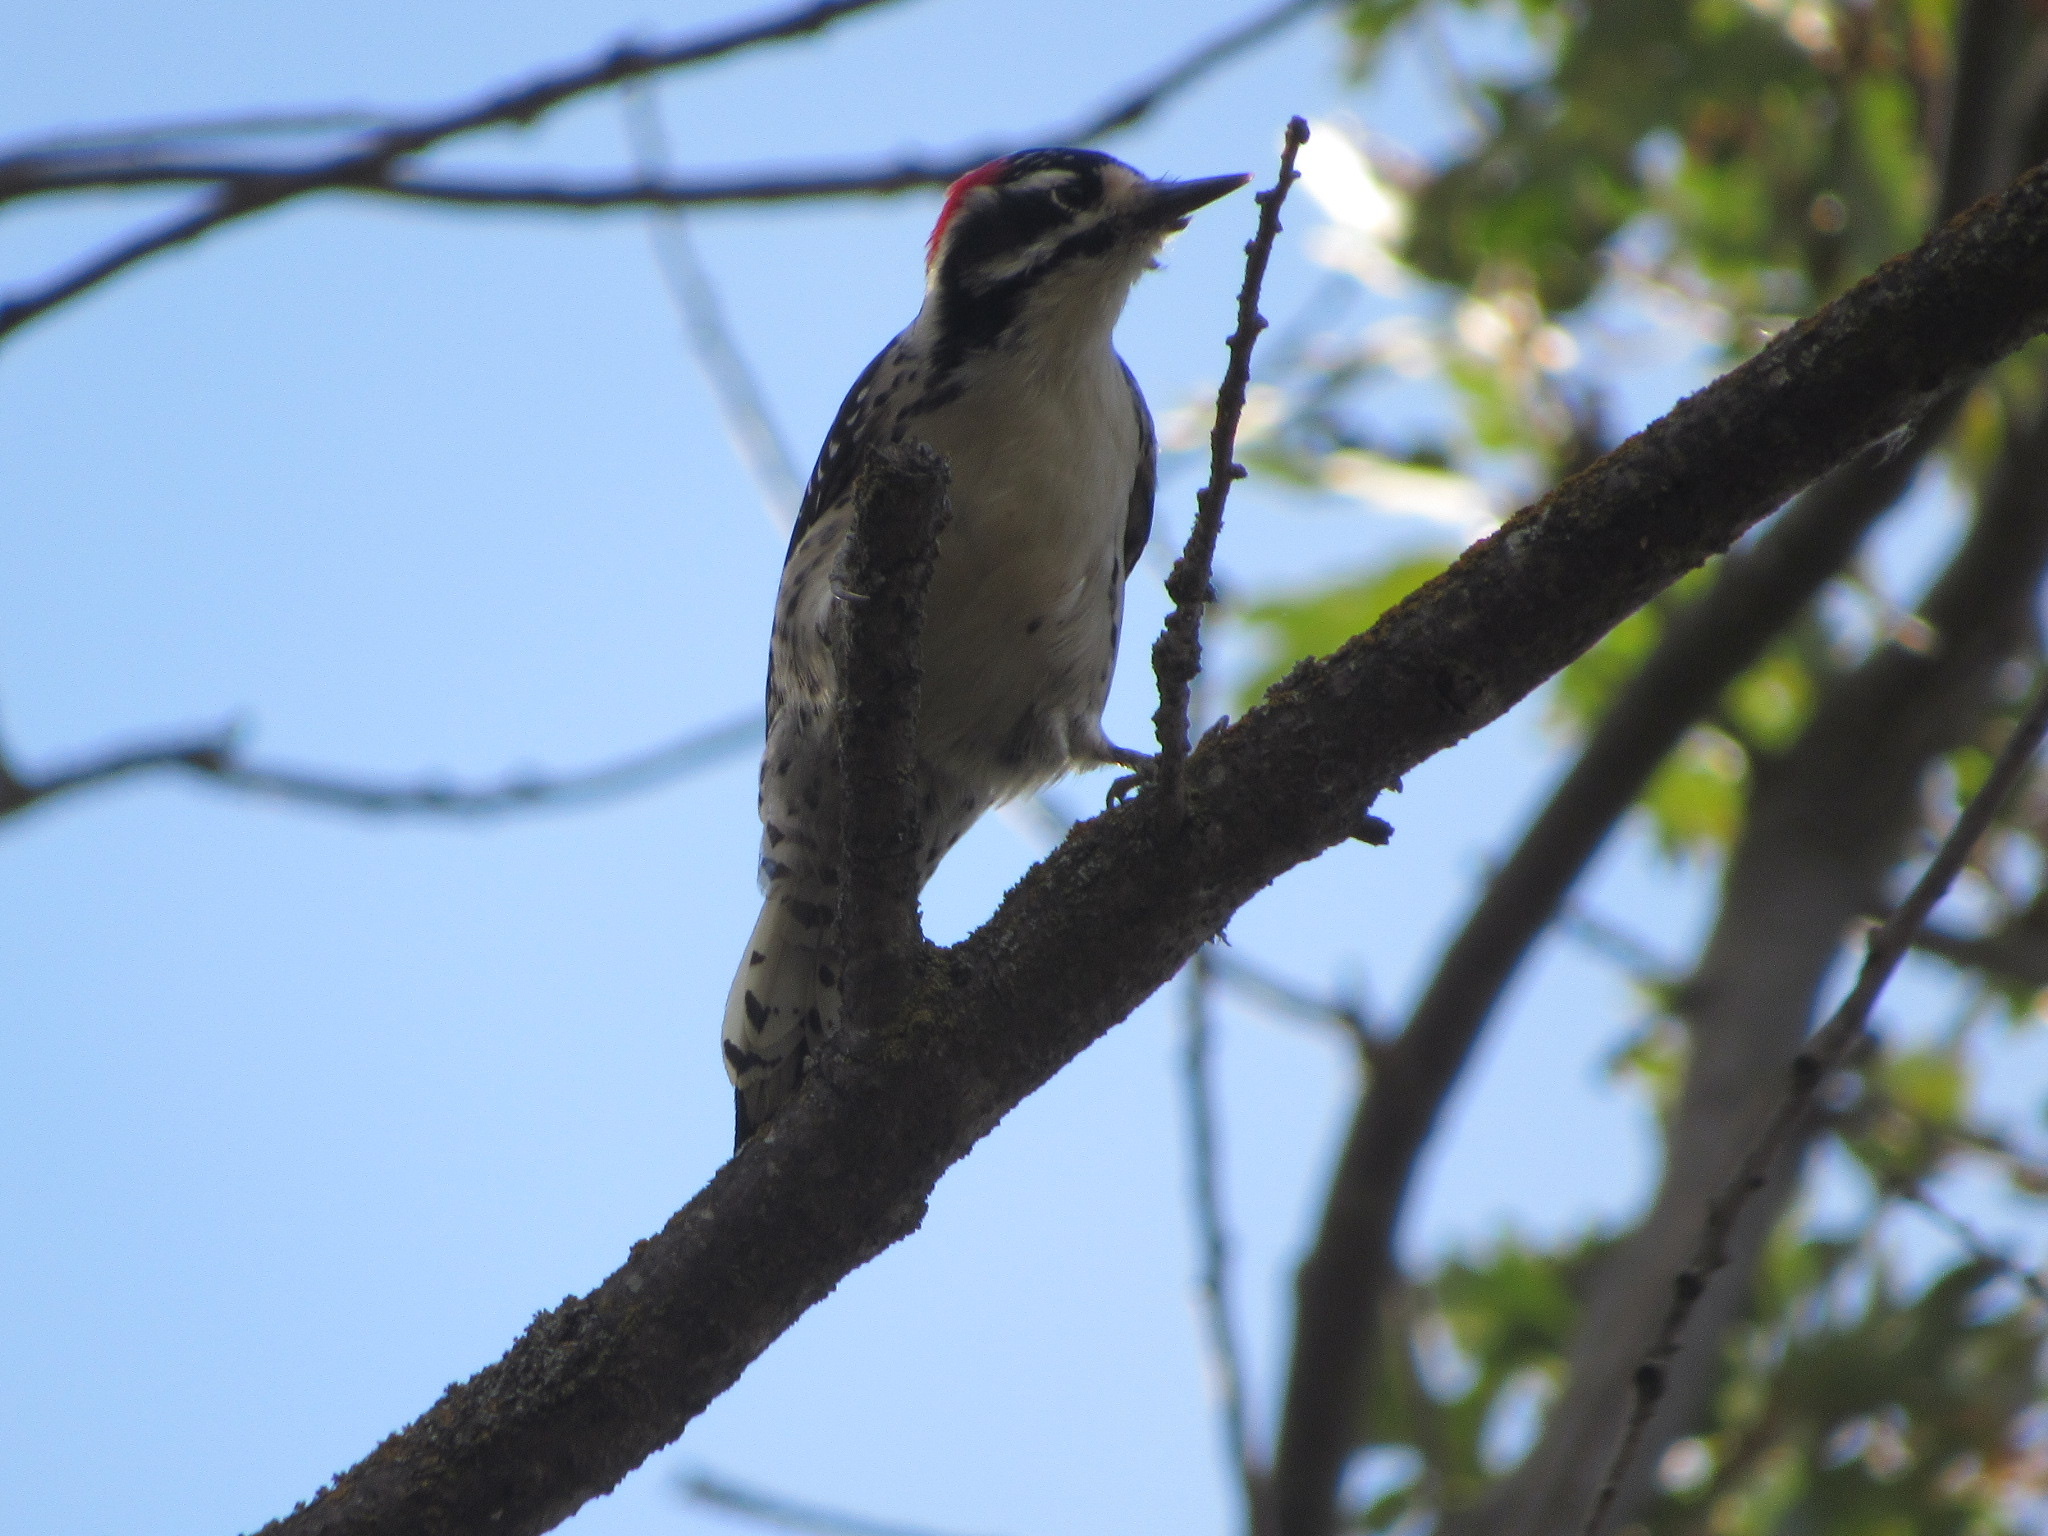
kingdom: Animalia
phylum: Chordata
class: Aves
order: Piciformes
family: Picidae
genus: Dryobates
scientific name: Dryobates nuttallii
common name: Nuttall's woodpecker
